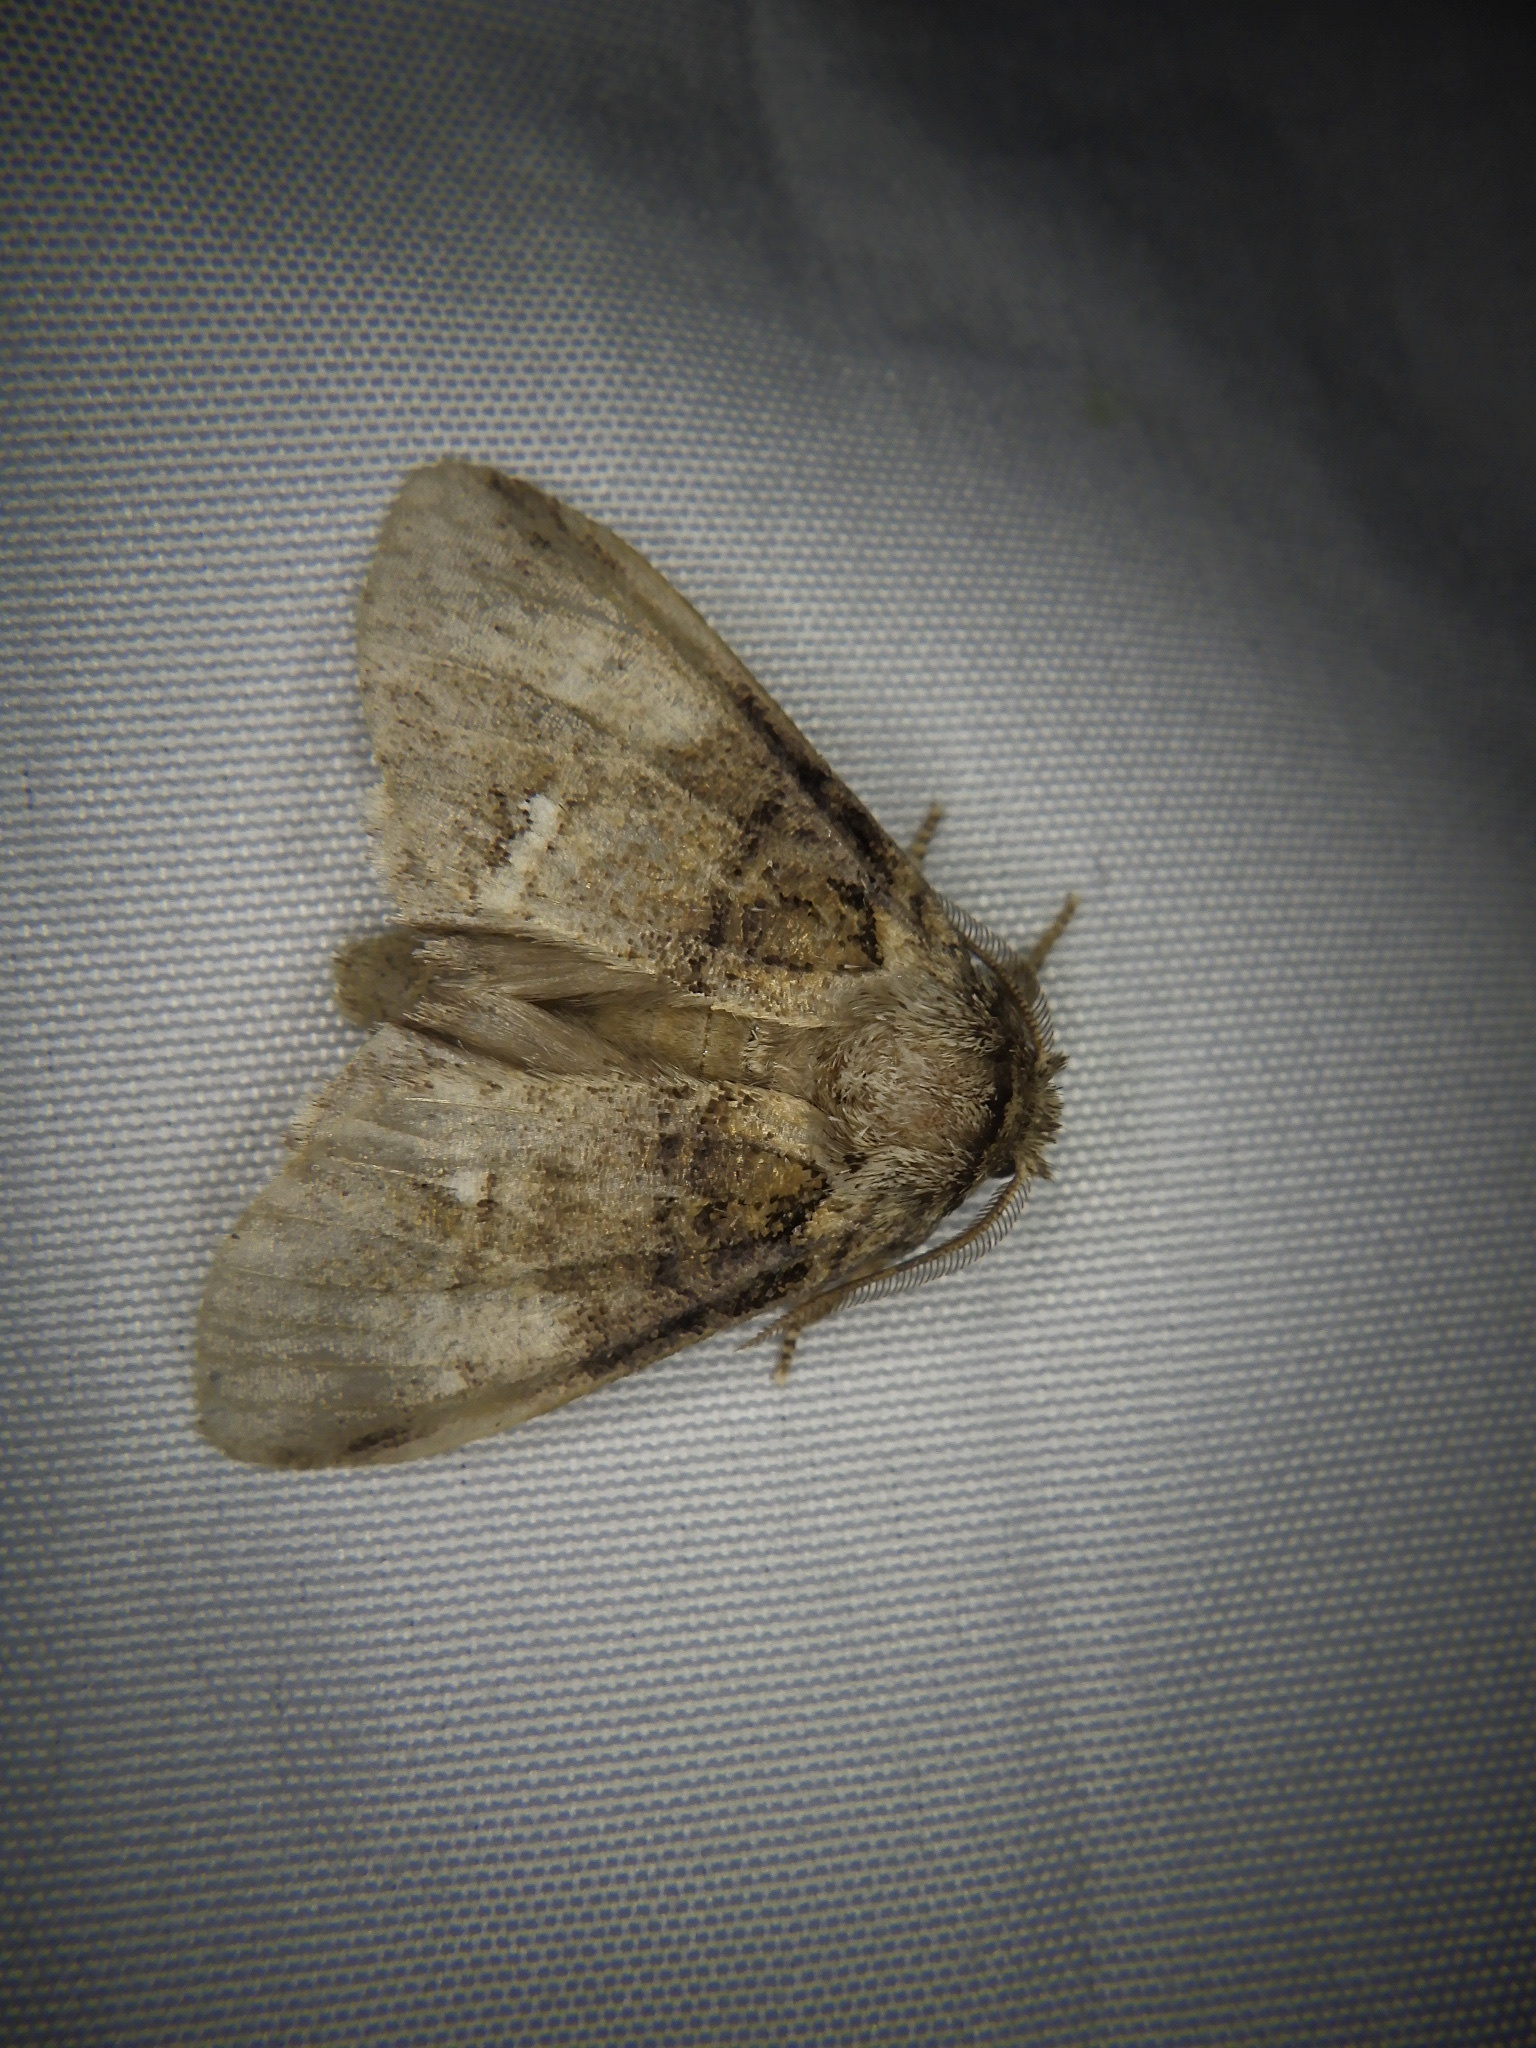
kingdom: Animalia
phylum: Arthropoda
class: Insecta
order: Lepidoptera
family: Notodontidae
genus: Drymonia
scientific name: Drymonia japonica
